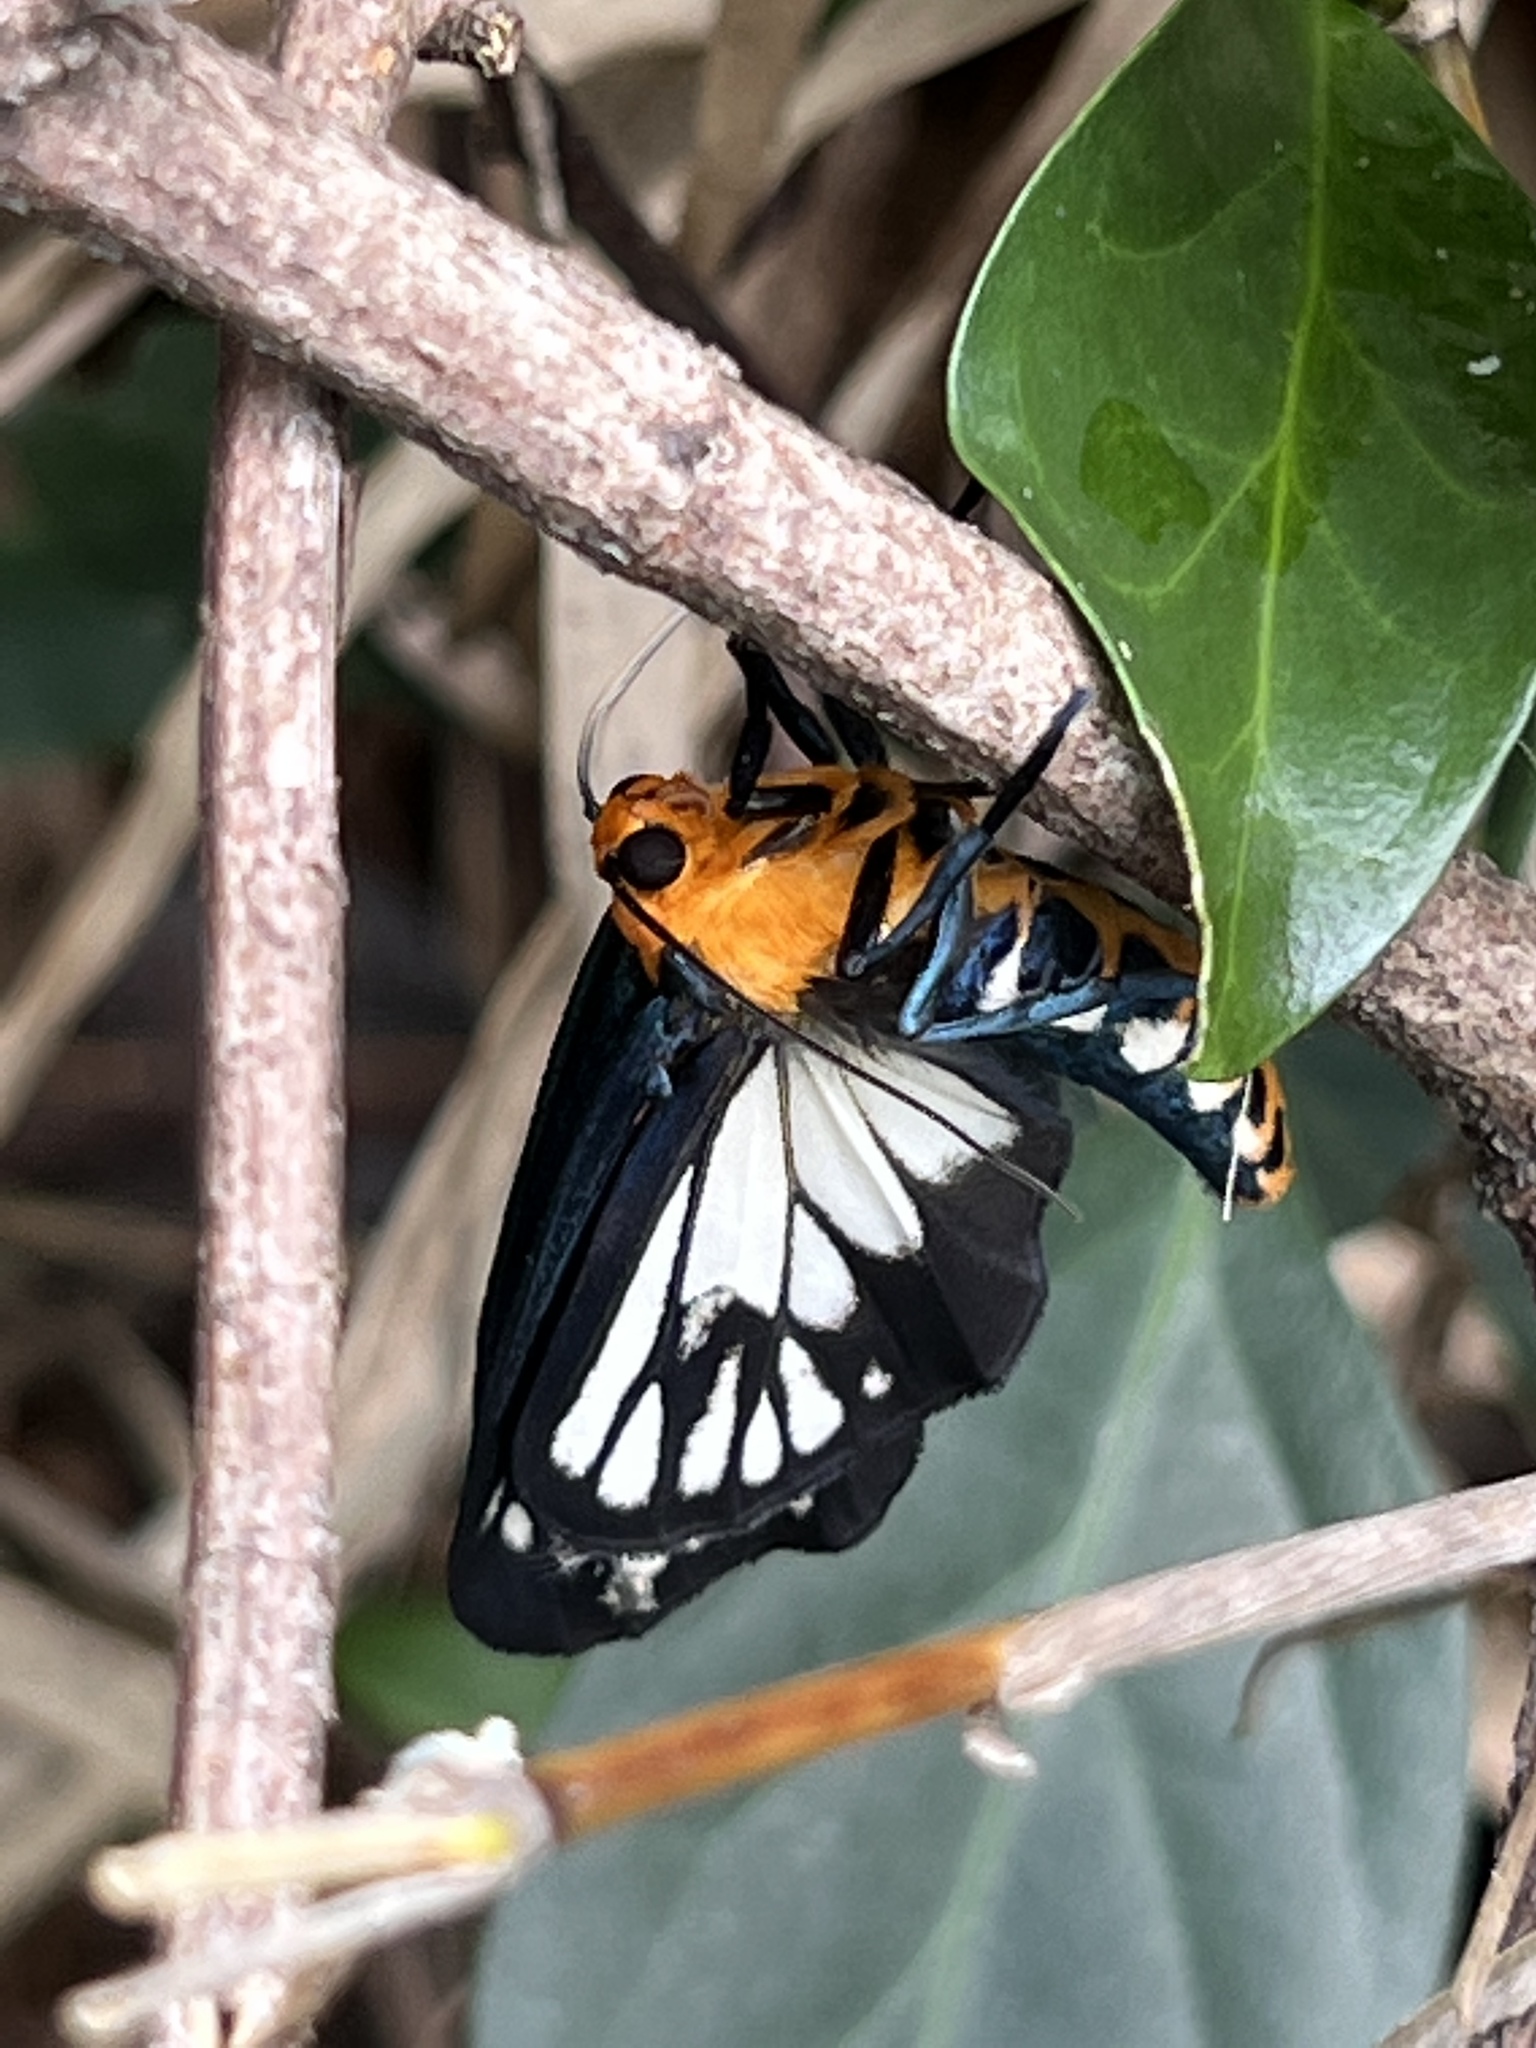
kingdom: Animalia
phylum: Arthropoda
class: Insecta
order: Lepidoptera
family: Erebidae
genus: Macrobrochis
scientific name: Macrobrochis gigas
